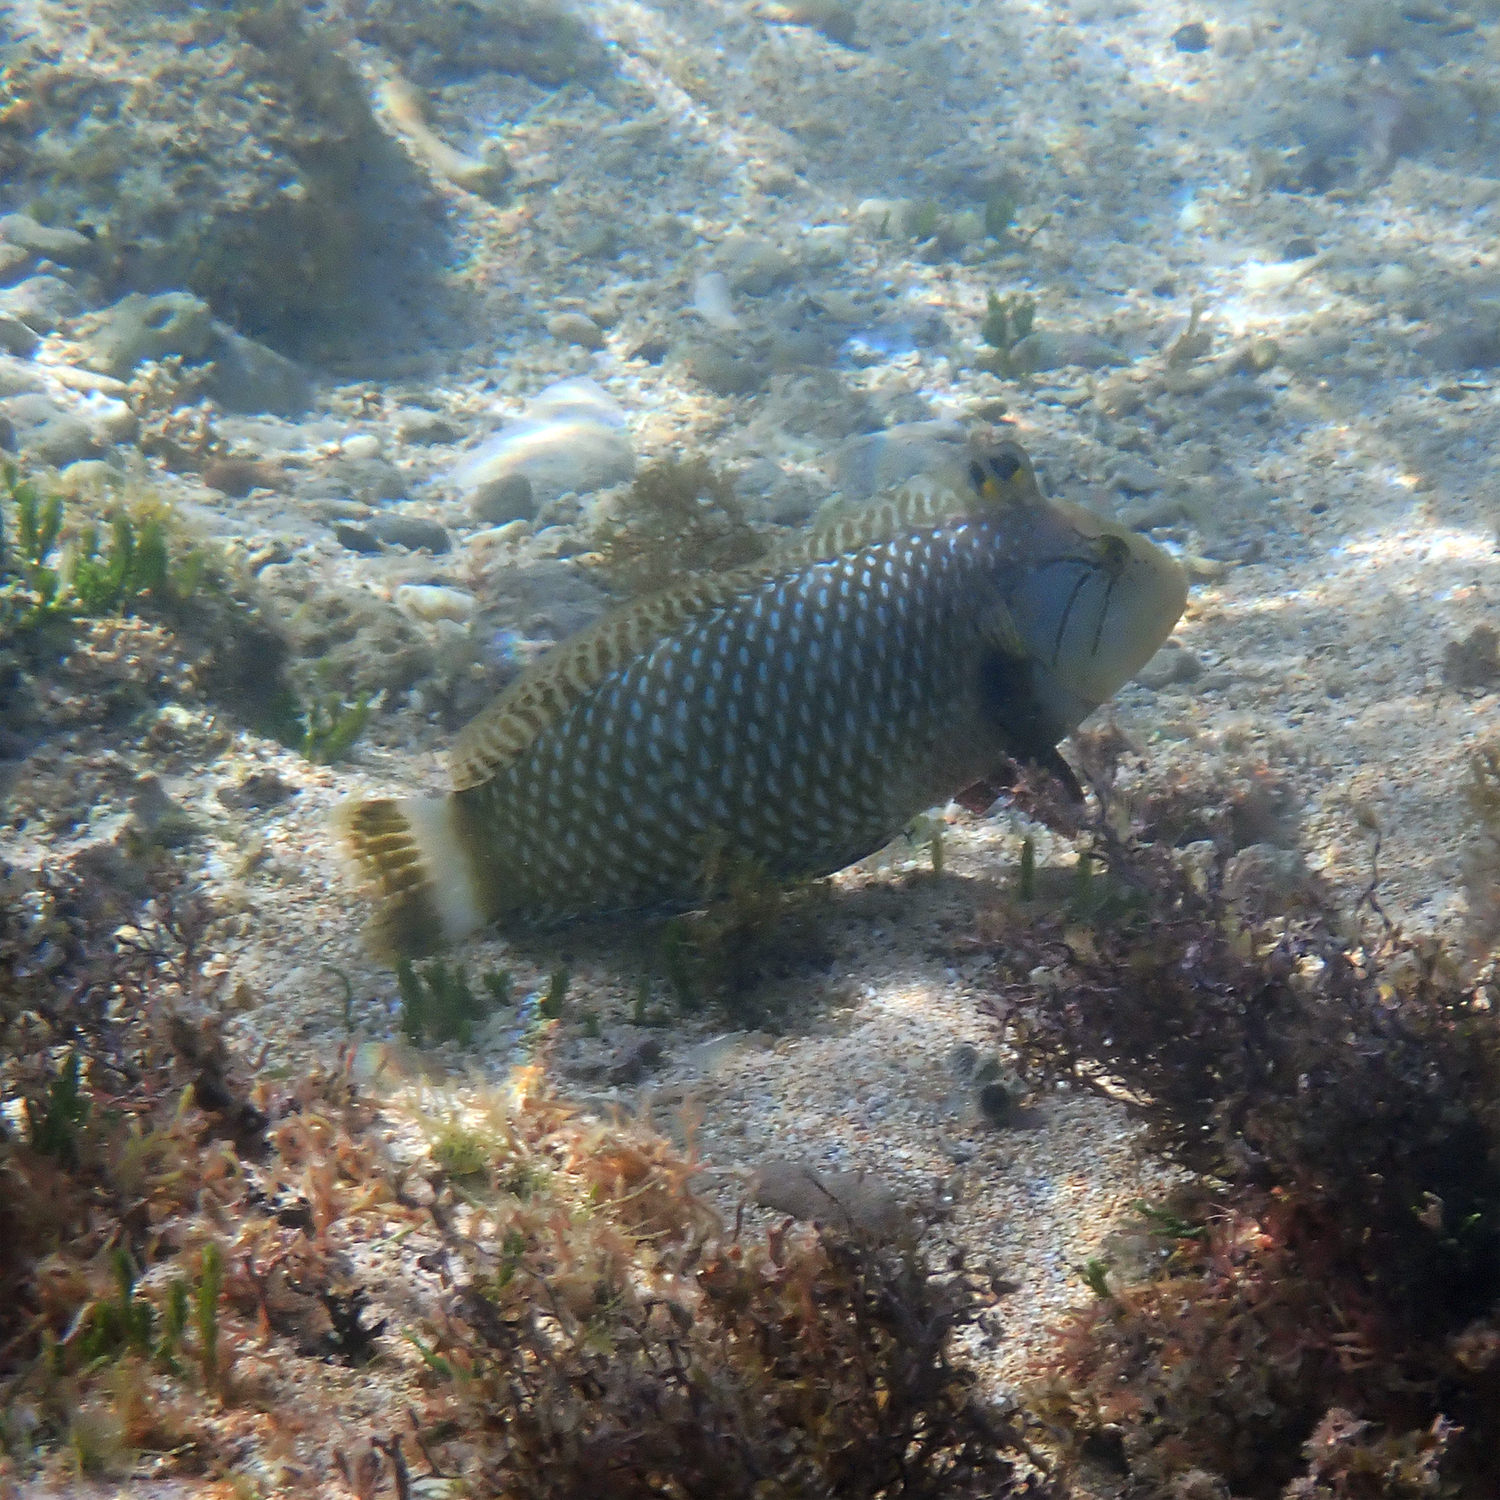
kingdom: Animalia
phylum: Chordata
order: Perciformes
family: Labridae
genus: Novaculichthys
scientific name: Novaculichthys taeniourus
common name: Rockmover wrasse
